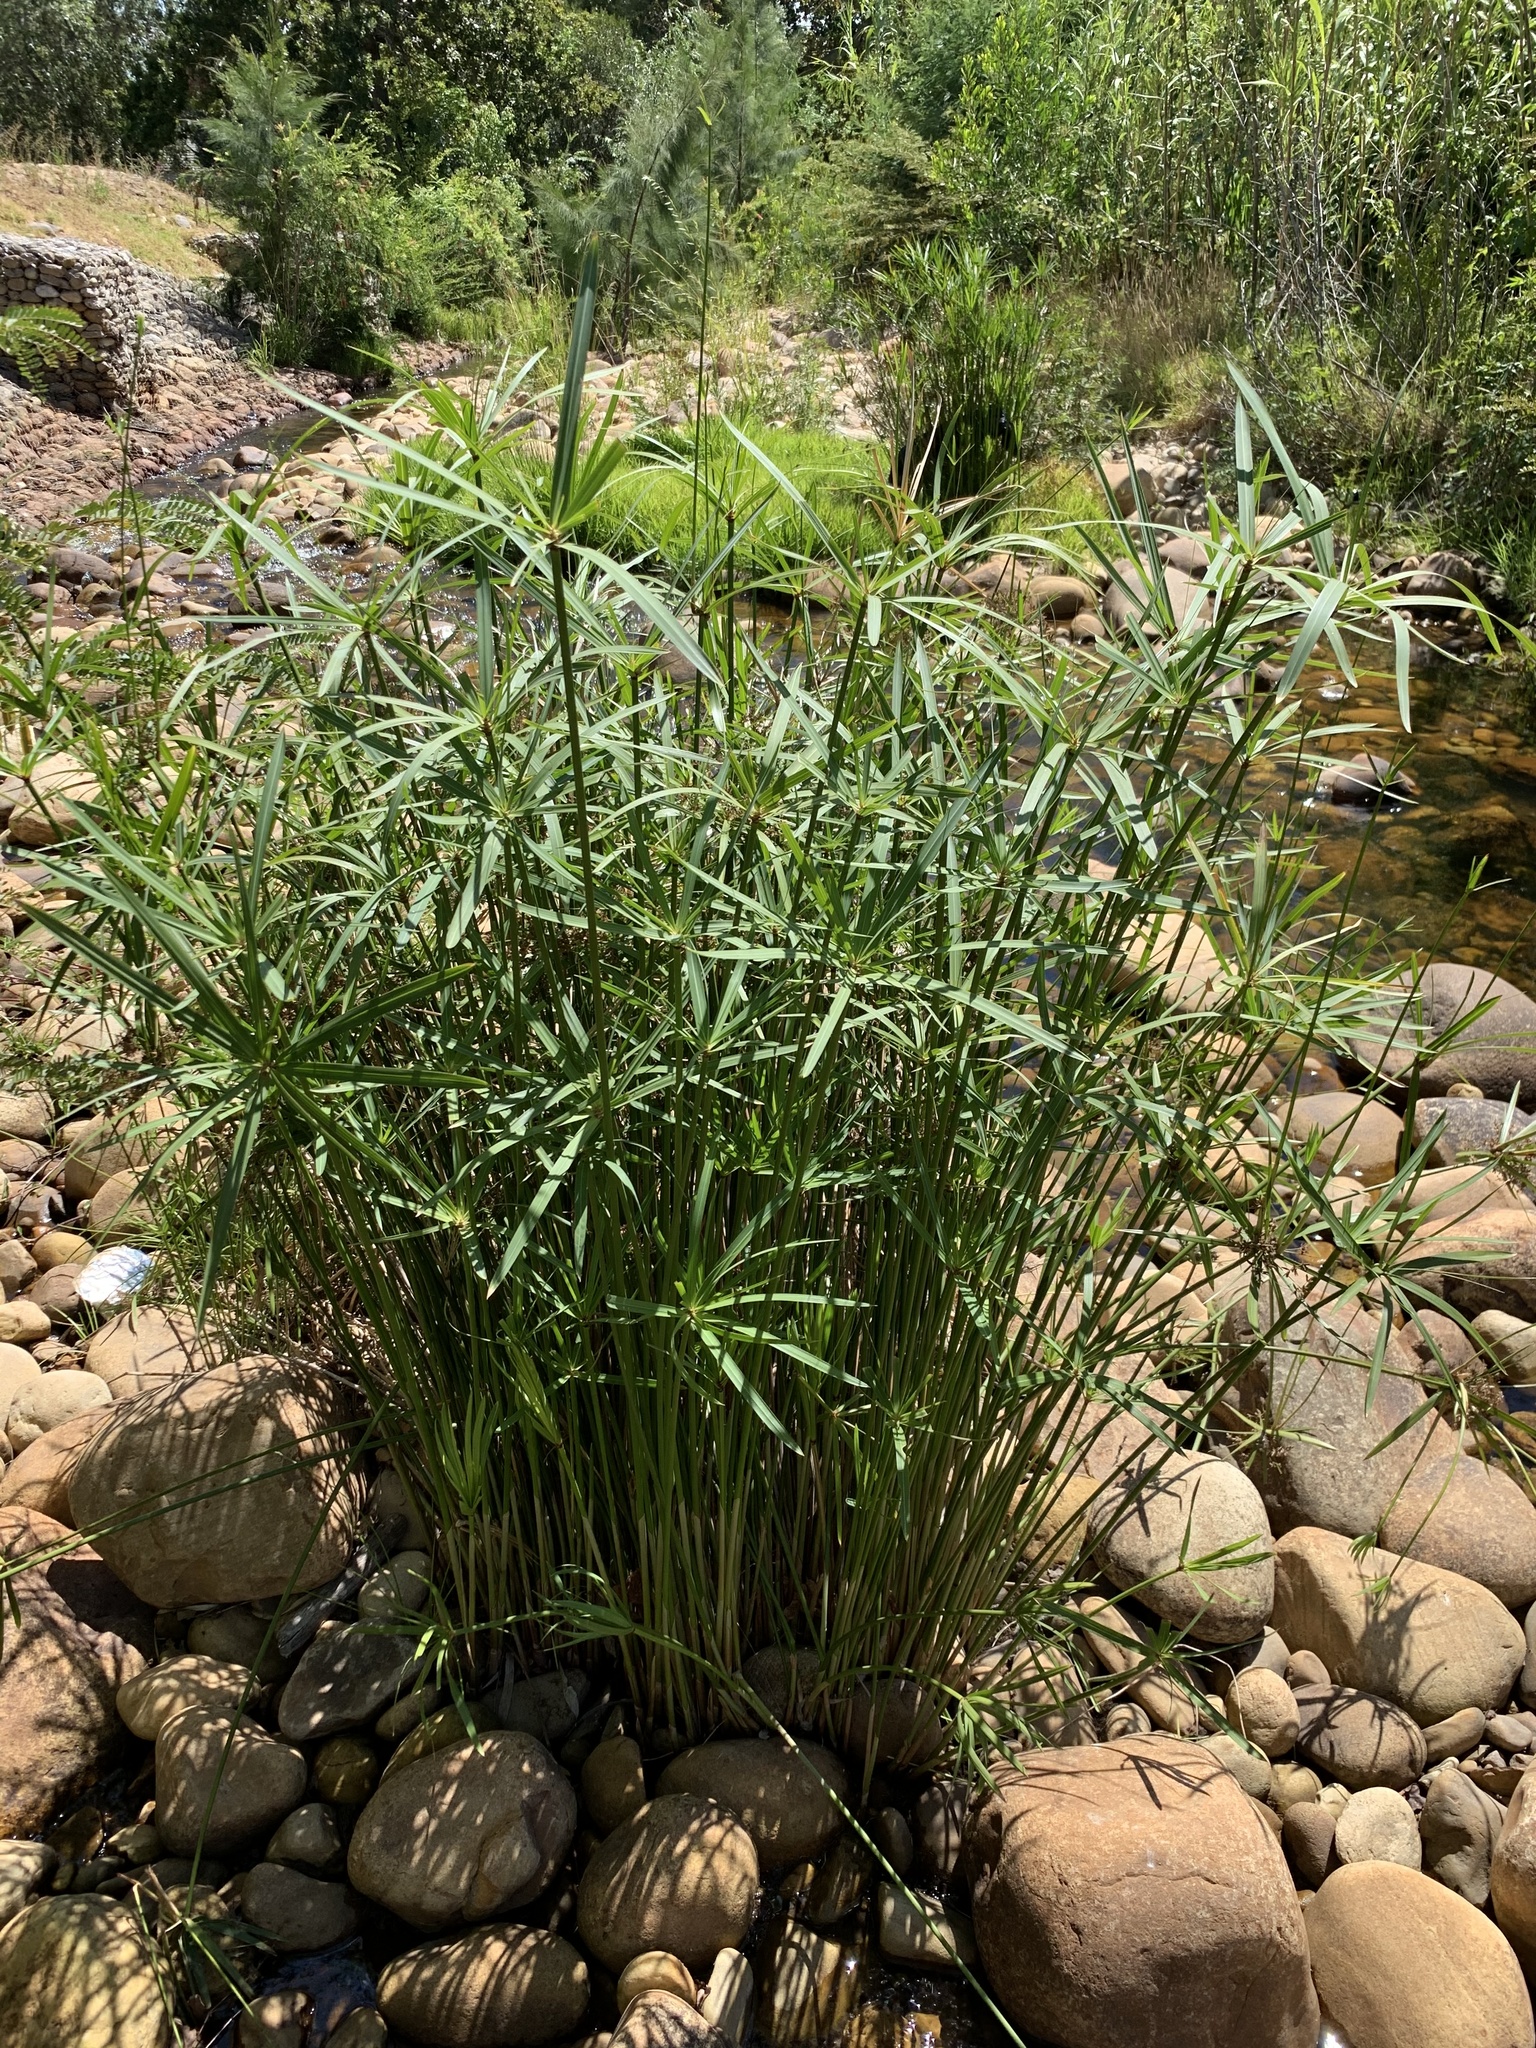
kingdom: Plantae
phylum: Tracheophyta
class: Liliopsida
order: Poales
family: Cyperaceae
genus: Cyperus
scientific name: Cyperus textilis
